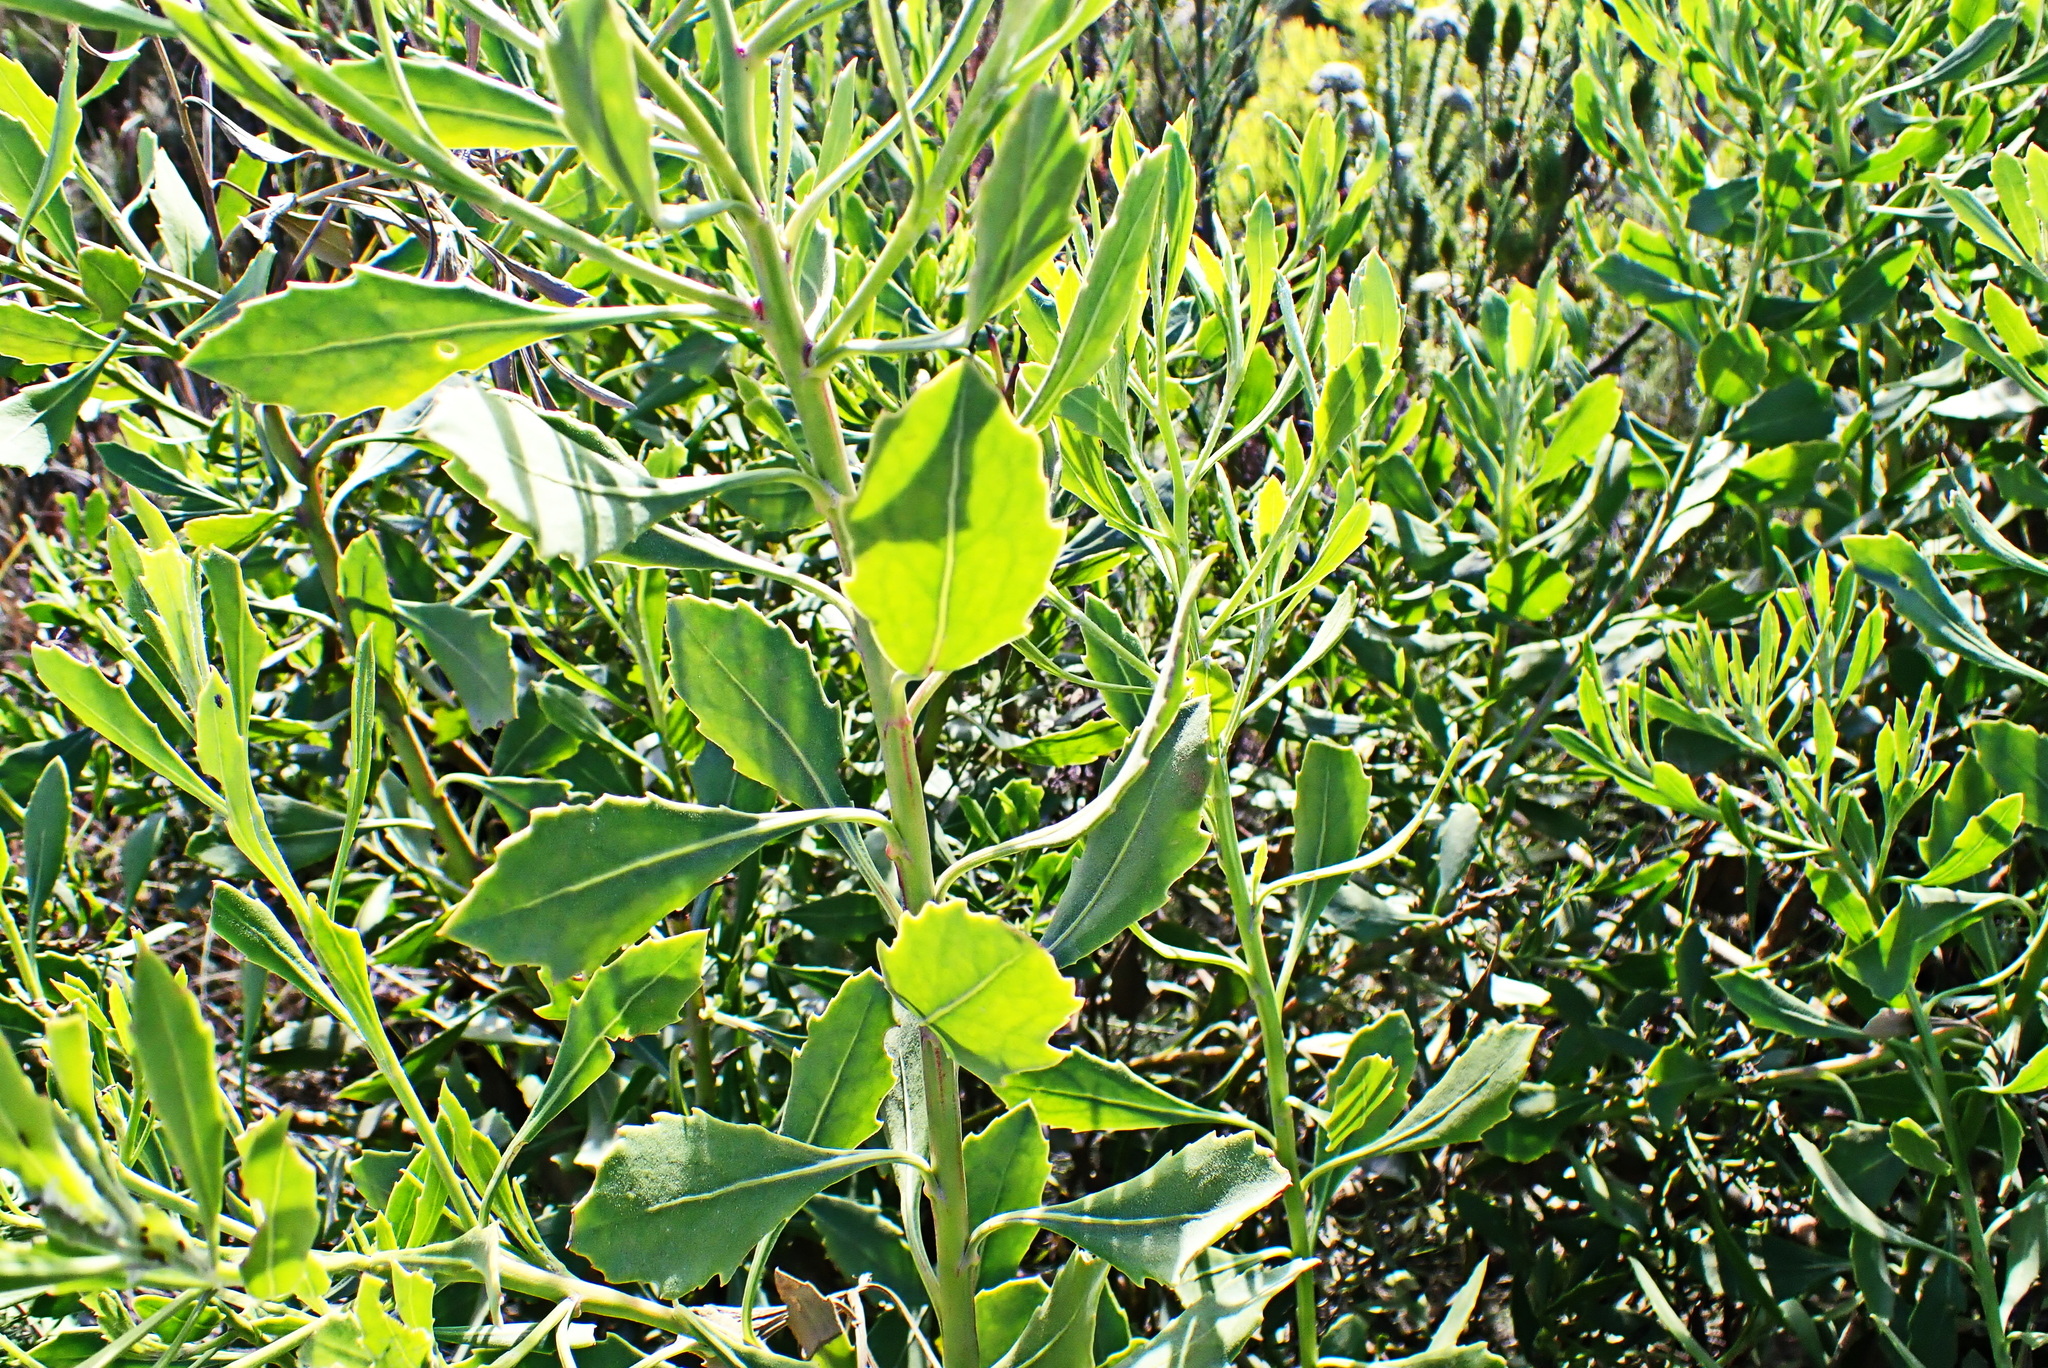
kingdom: Plantae
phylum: Tracheophyta
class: Magnoliopsida
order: Asterales
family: Asteraceae
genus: Osteospermum
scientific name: Osteospermum moniliferum
